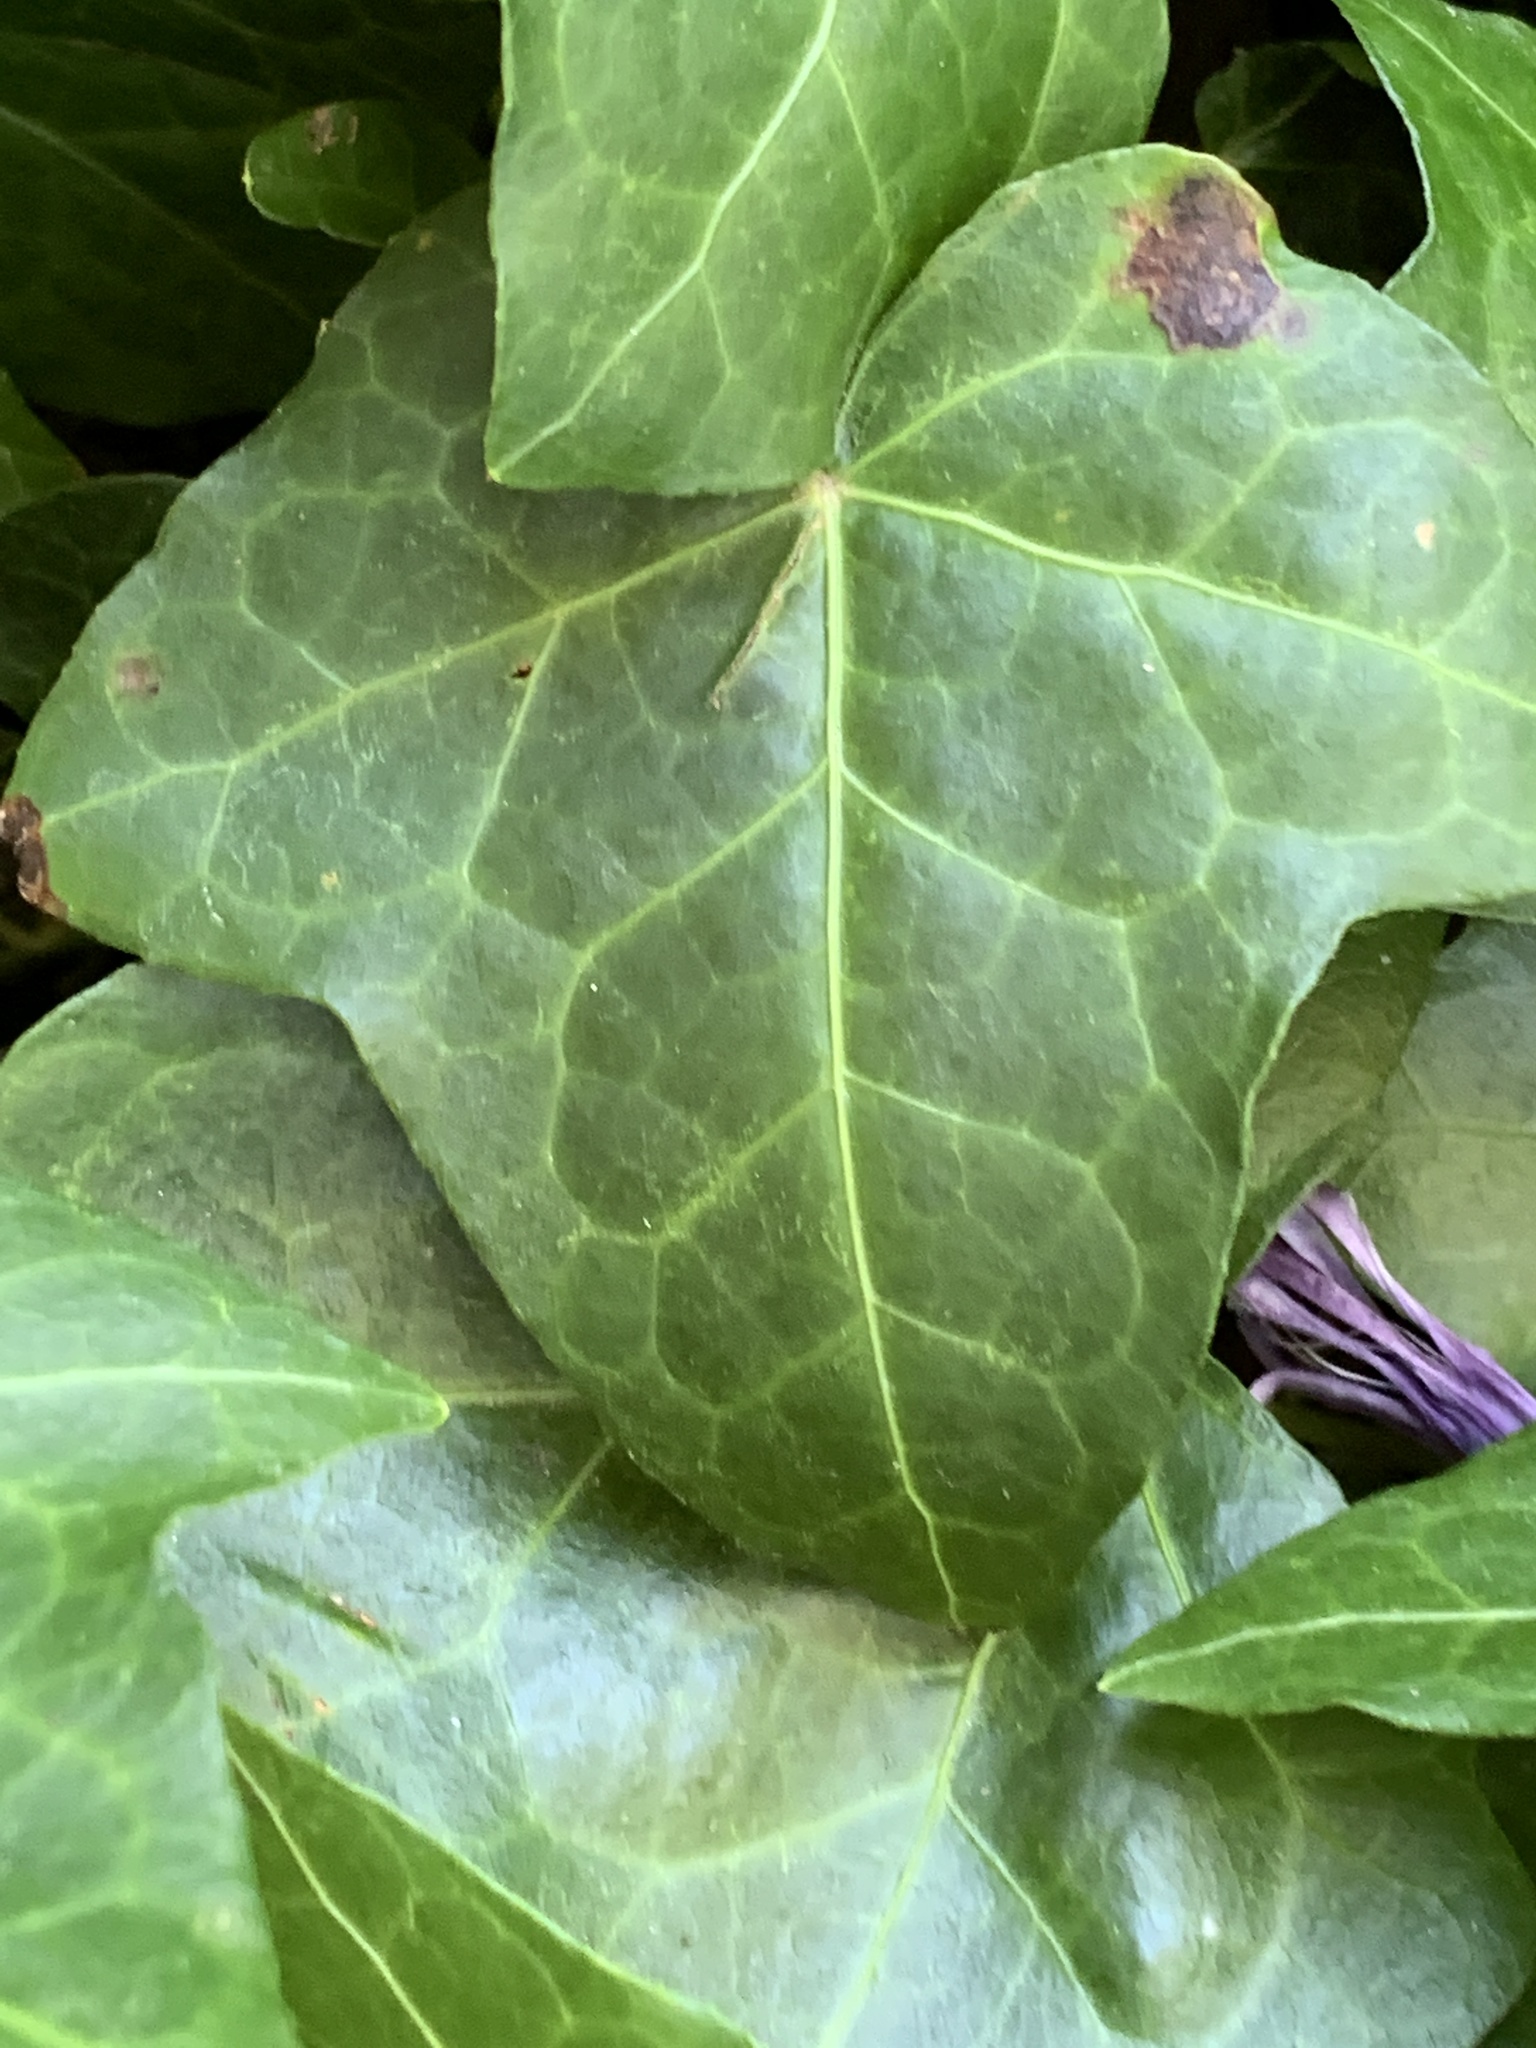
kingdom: Plantae
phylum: Tracheophyta
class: Magnoliopsida
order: Apiales
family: Araliaceae
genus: Hedera
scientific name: Hedera helix
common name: Ivy
